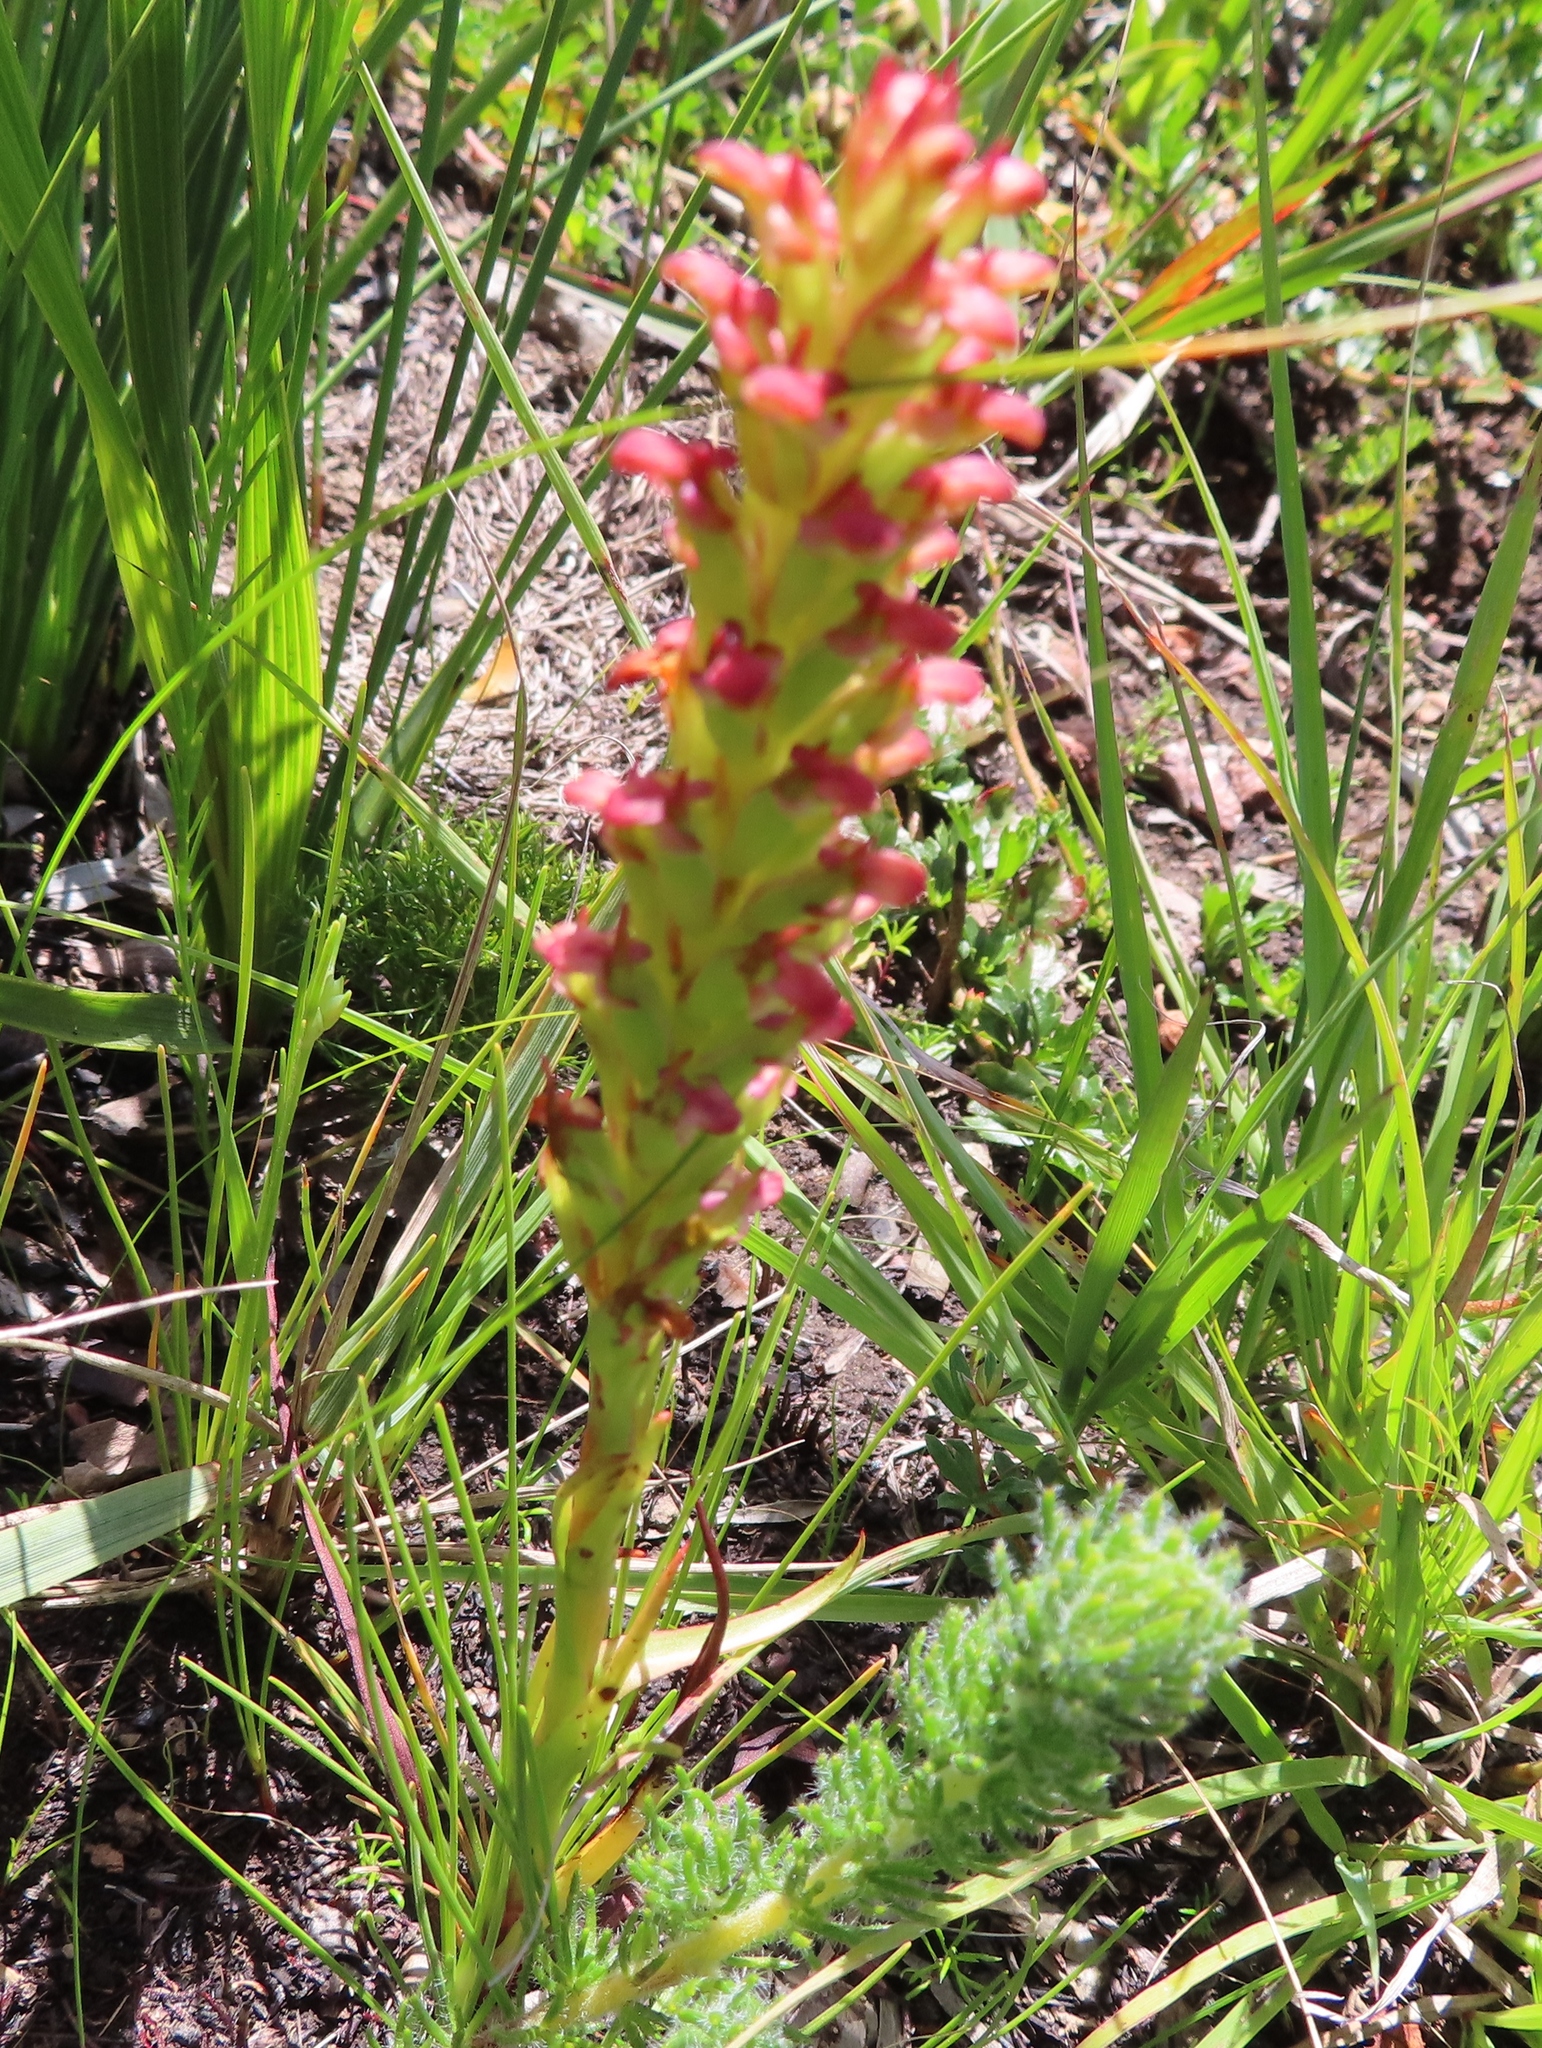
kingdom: Plantae
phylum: Tracheophyta
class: Liliopsida
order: Asparagales
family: Orchidaceae
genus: Disa
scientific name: Disa bracteata
